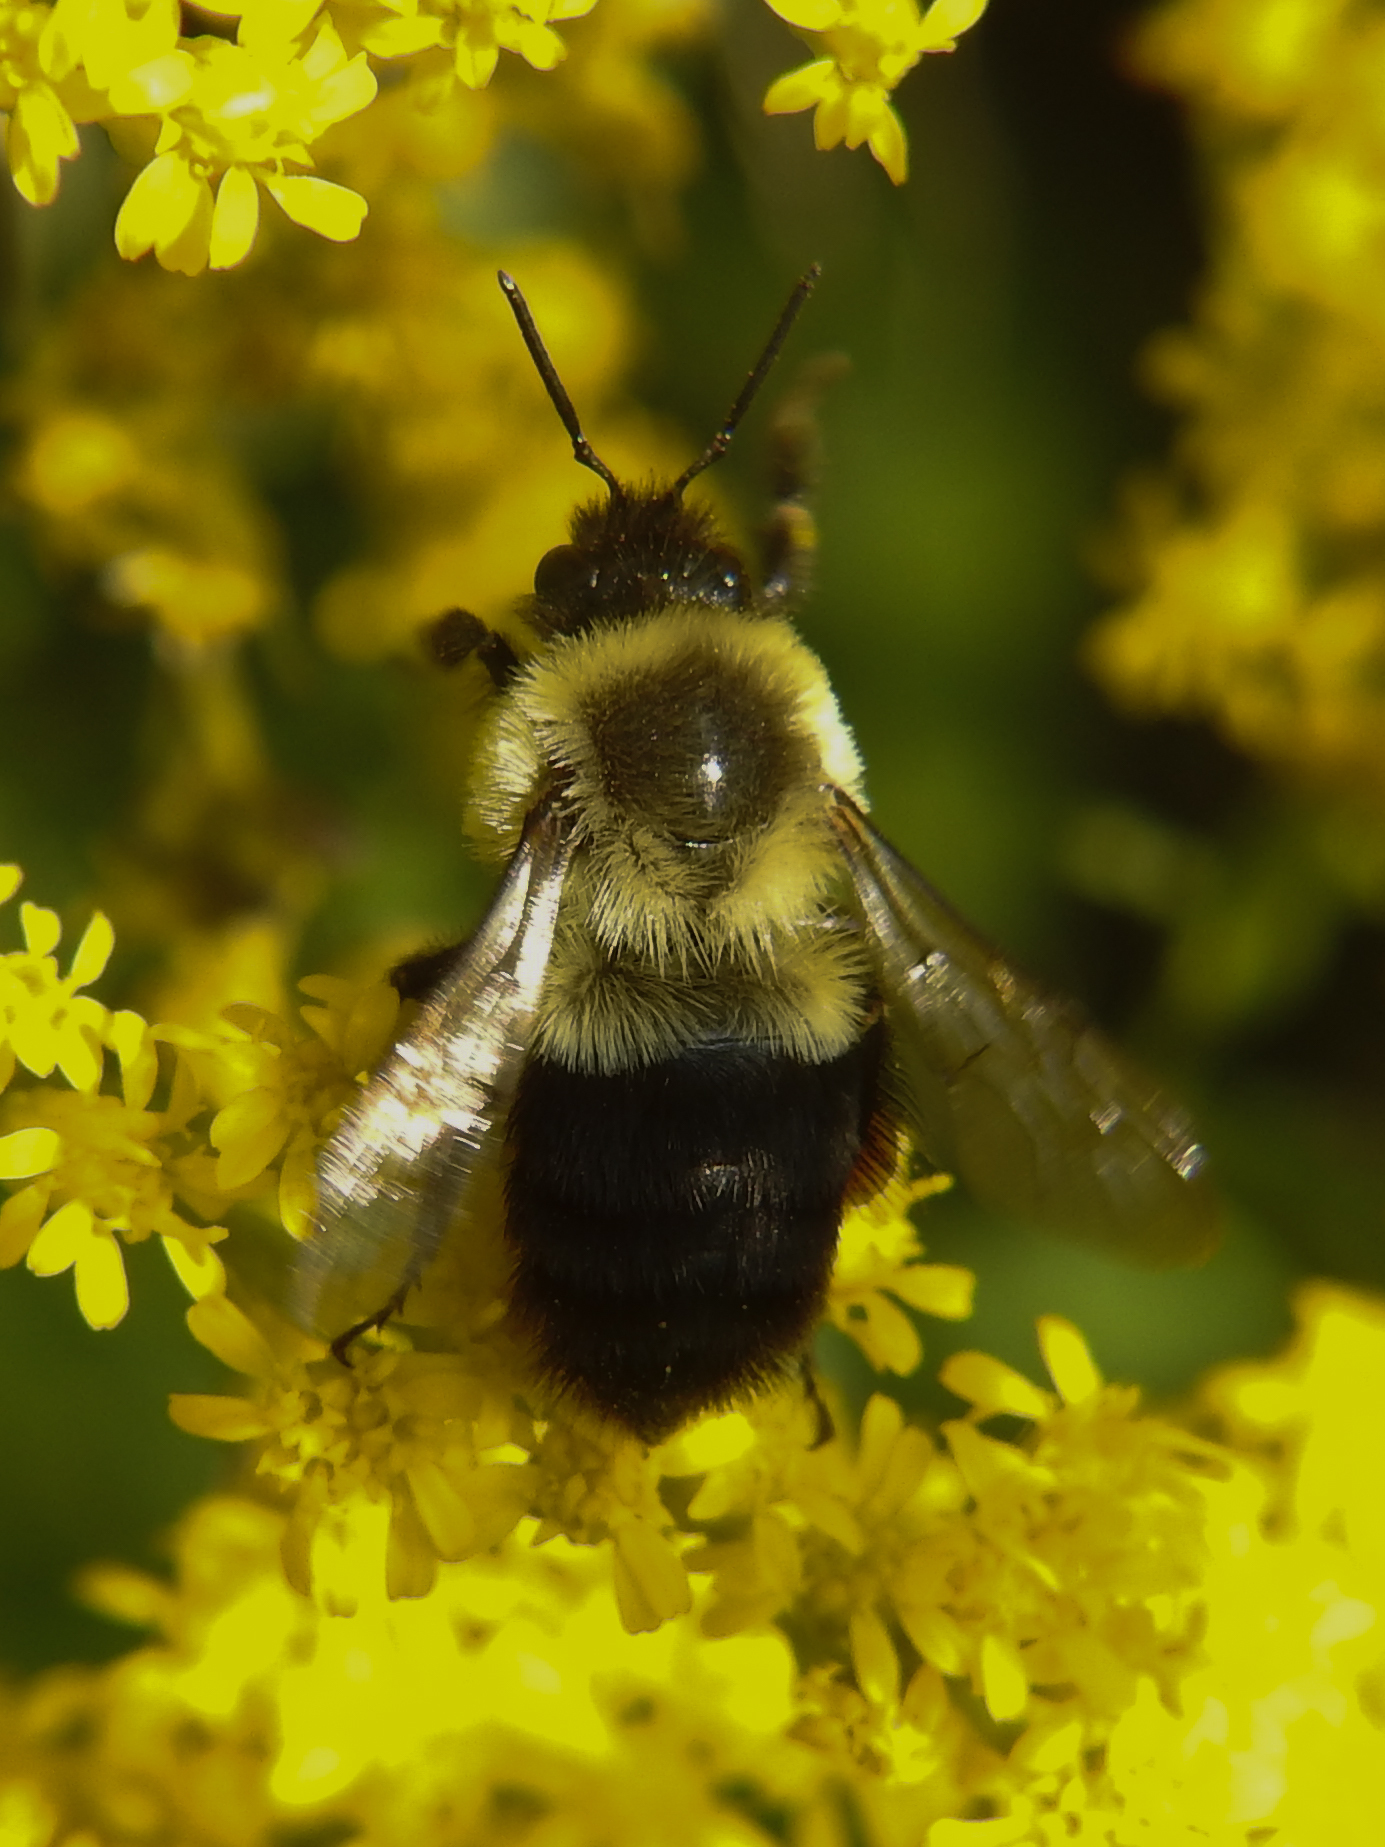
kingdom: Animalia
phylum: Arthropoda
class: Insecta
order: Hymenoptera
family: Apidae
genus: Bombus
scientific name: Bombus impatiens
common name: Common eastern bumble bee
